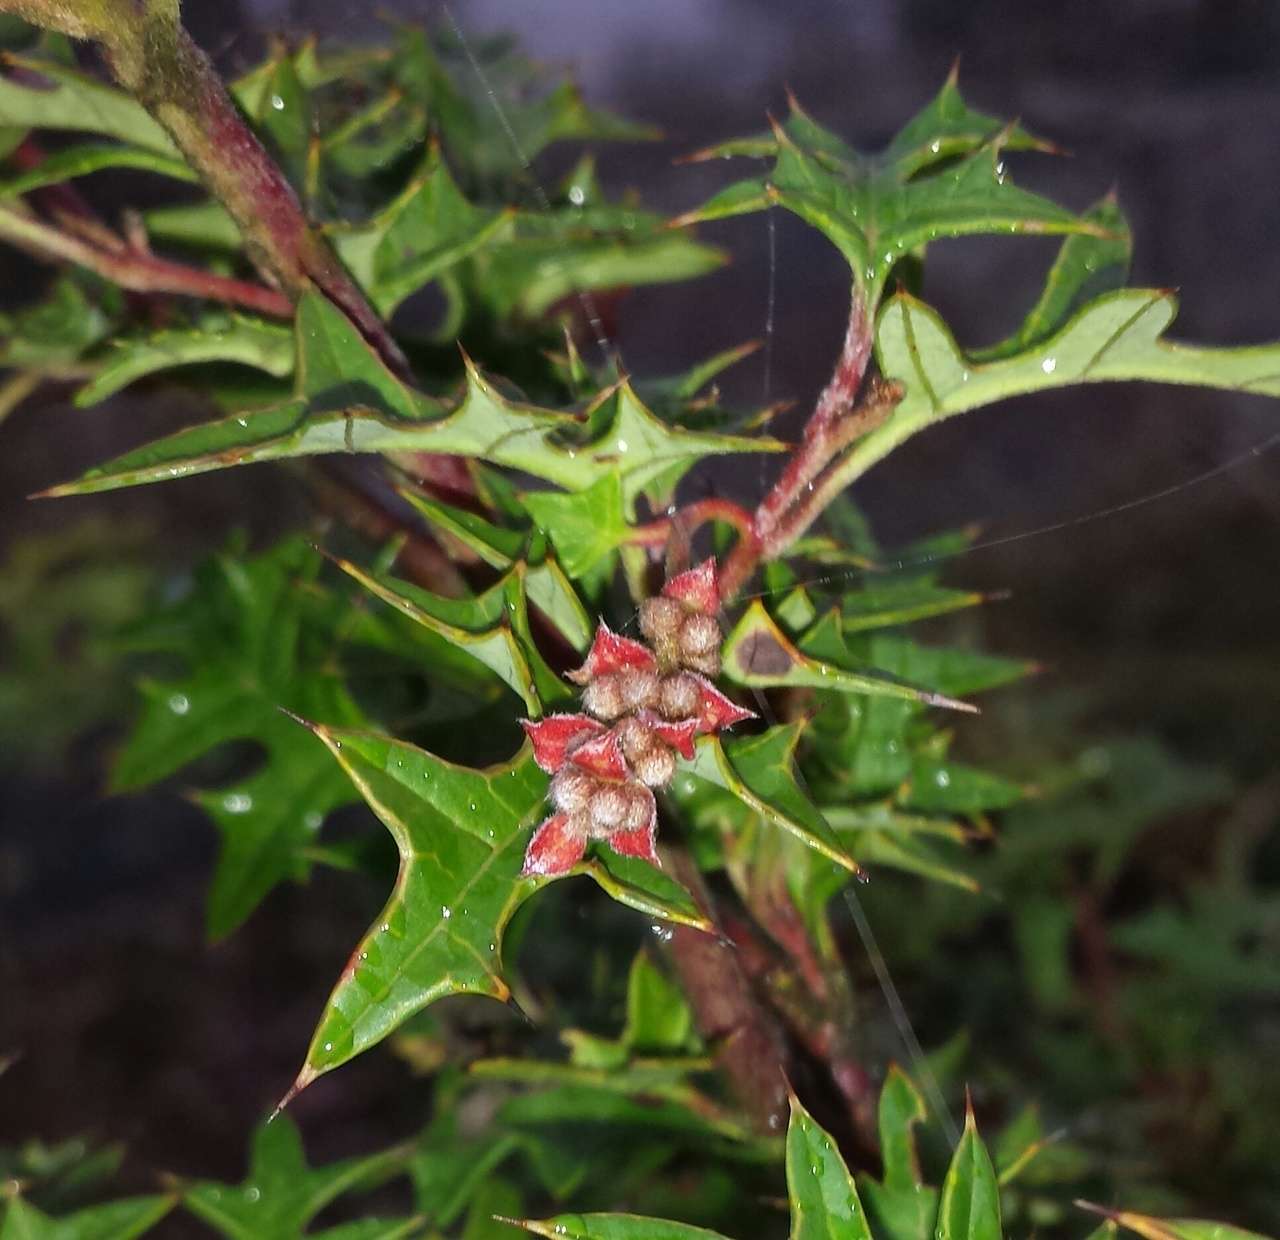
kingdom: Plantae
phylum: Tracheophyta
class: Magnoliopsida
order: Proteales
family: Proteaceae
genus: Grevillea
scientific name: Grevillea montis-cole
